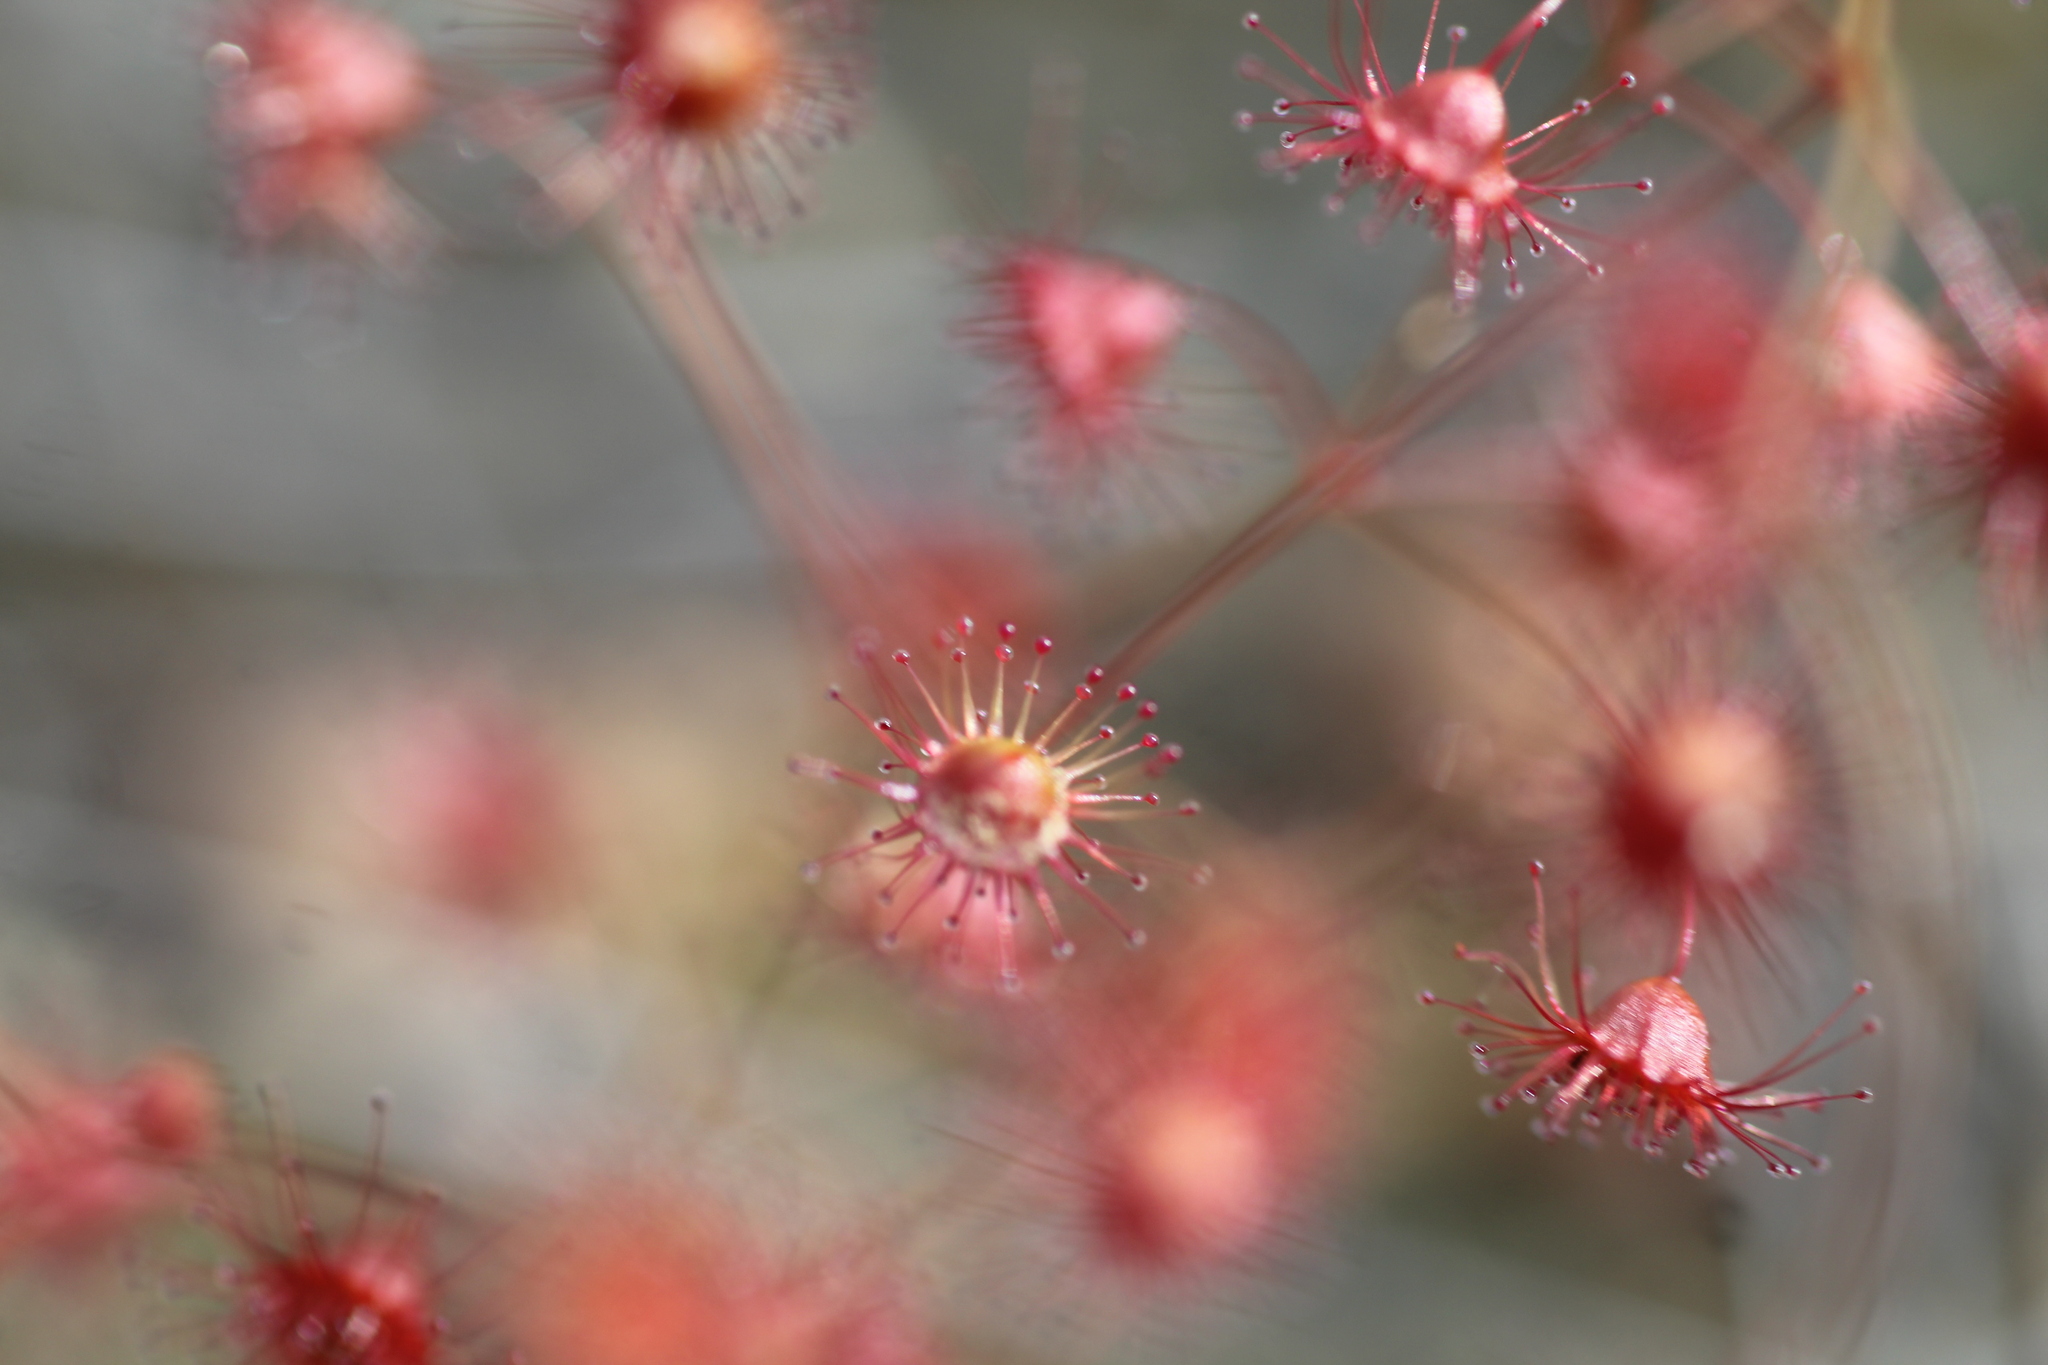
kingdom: Plantae
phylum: Tracheophyta
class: Magnoliopsida
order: Caryophyllales
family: Droseraceae
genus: Drosera
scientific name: Drosera macrantha
